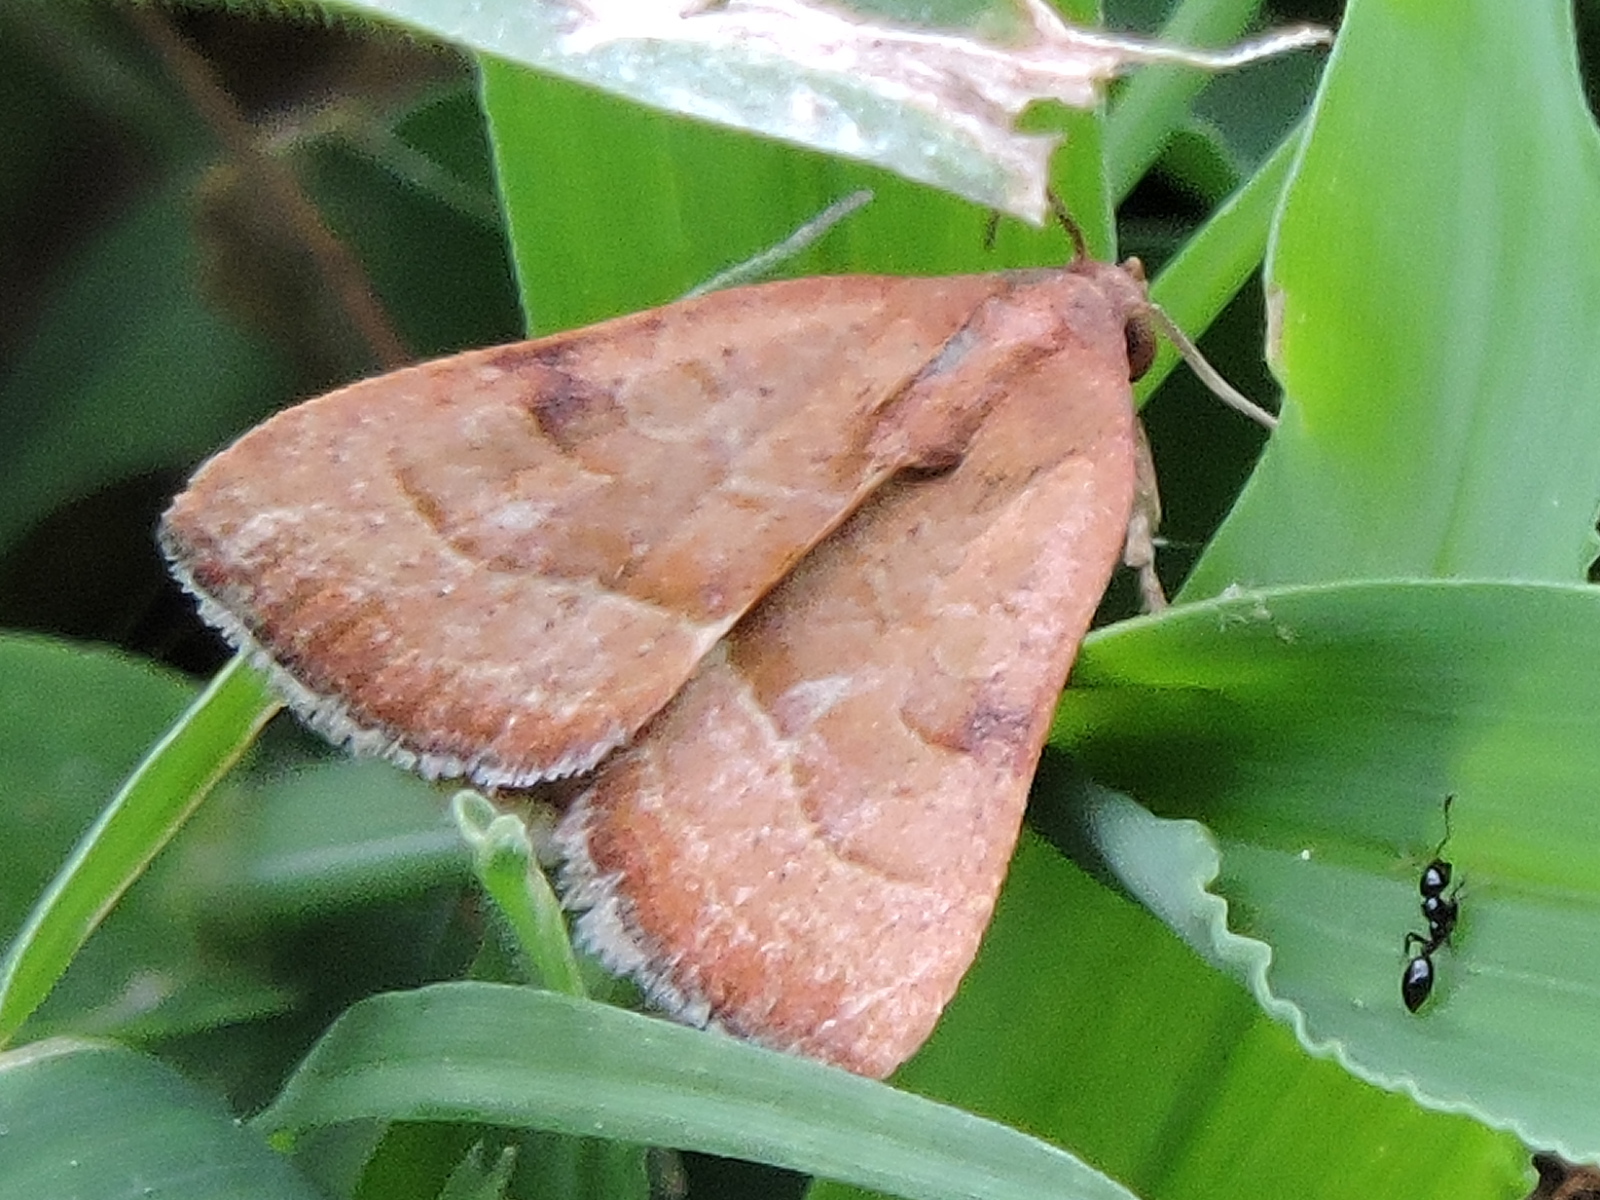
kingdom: Animalia
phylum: Arthropoda
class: Insecta
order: Lepidoptera
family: Noctuidae
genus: Galgula
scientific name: Galgula partita
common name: Wedgeling
